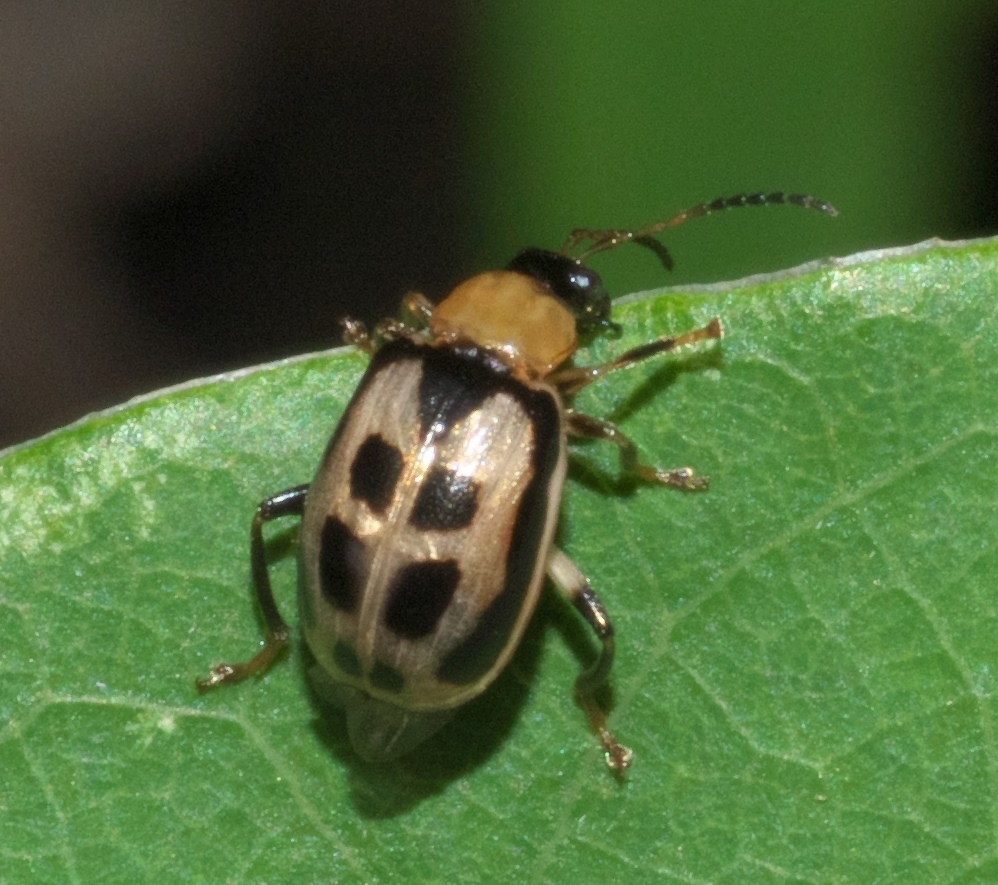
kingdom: Animalia
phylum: Arthropoda
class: Insecta
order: Coleoptera
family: Chrysomelidae
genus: Cerotoma
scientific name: Cerotoma trifurcata
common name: Bean leaf beetle
